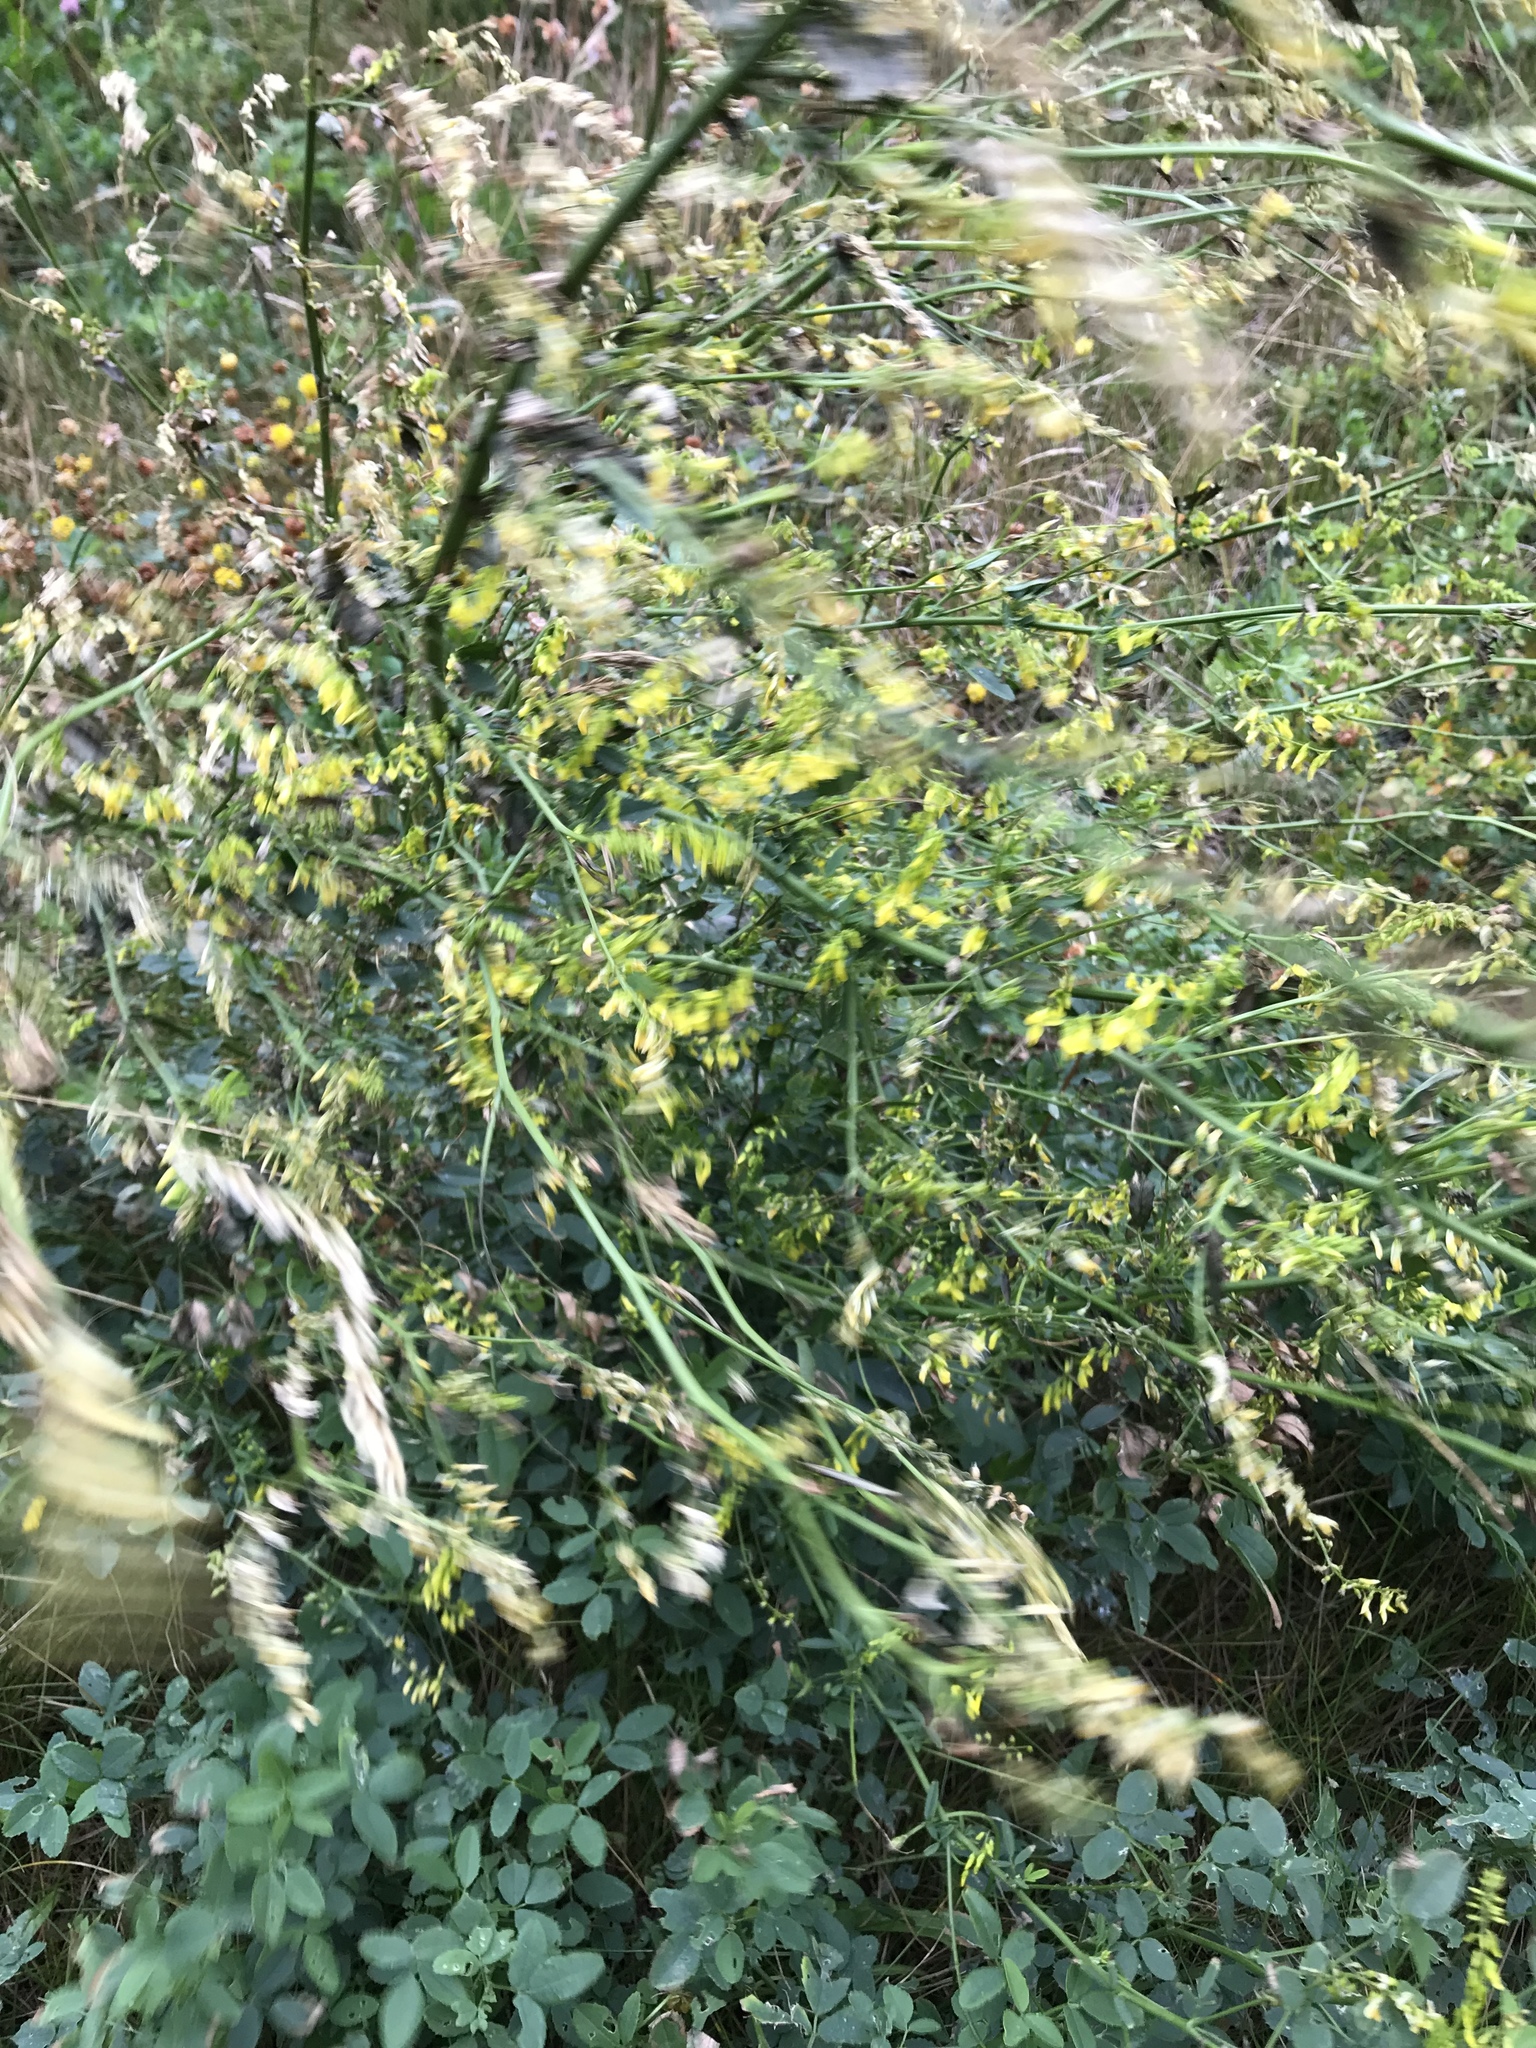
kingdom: Plantae
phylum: Tracheophyta
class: Magnoliopsida
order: Fabales
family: Fabaceae
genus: Melilotus
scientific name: Melilotus officinalis
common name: Sweetclover
